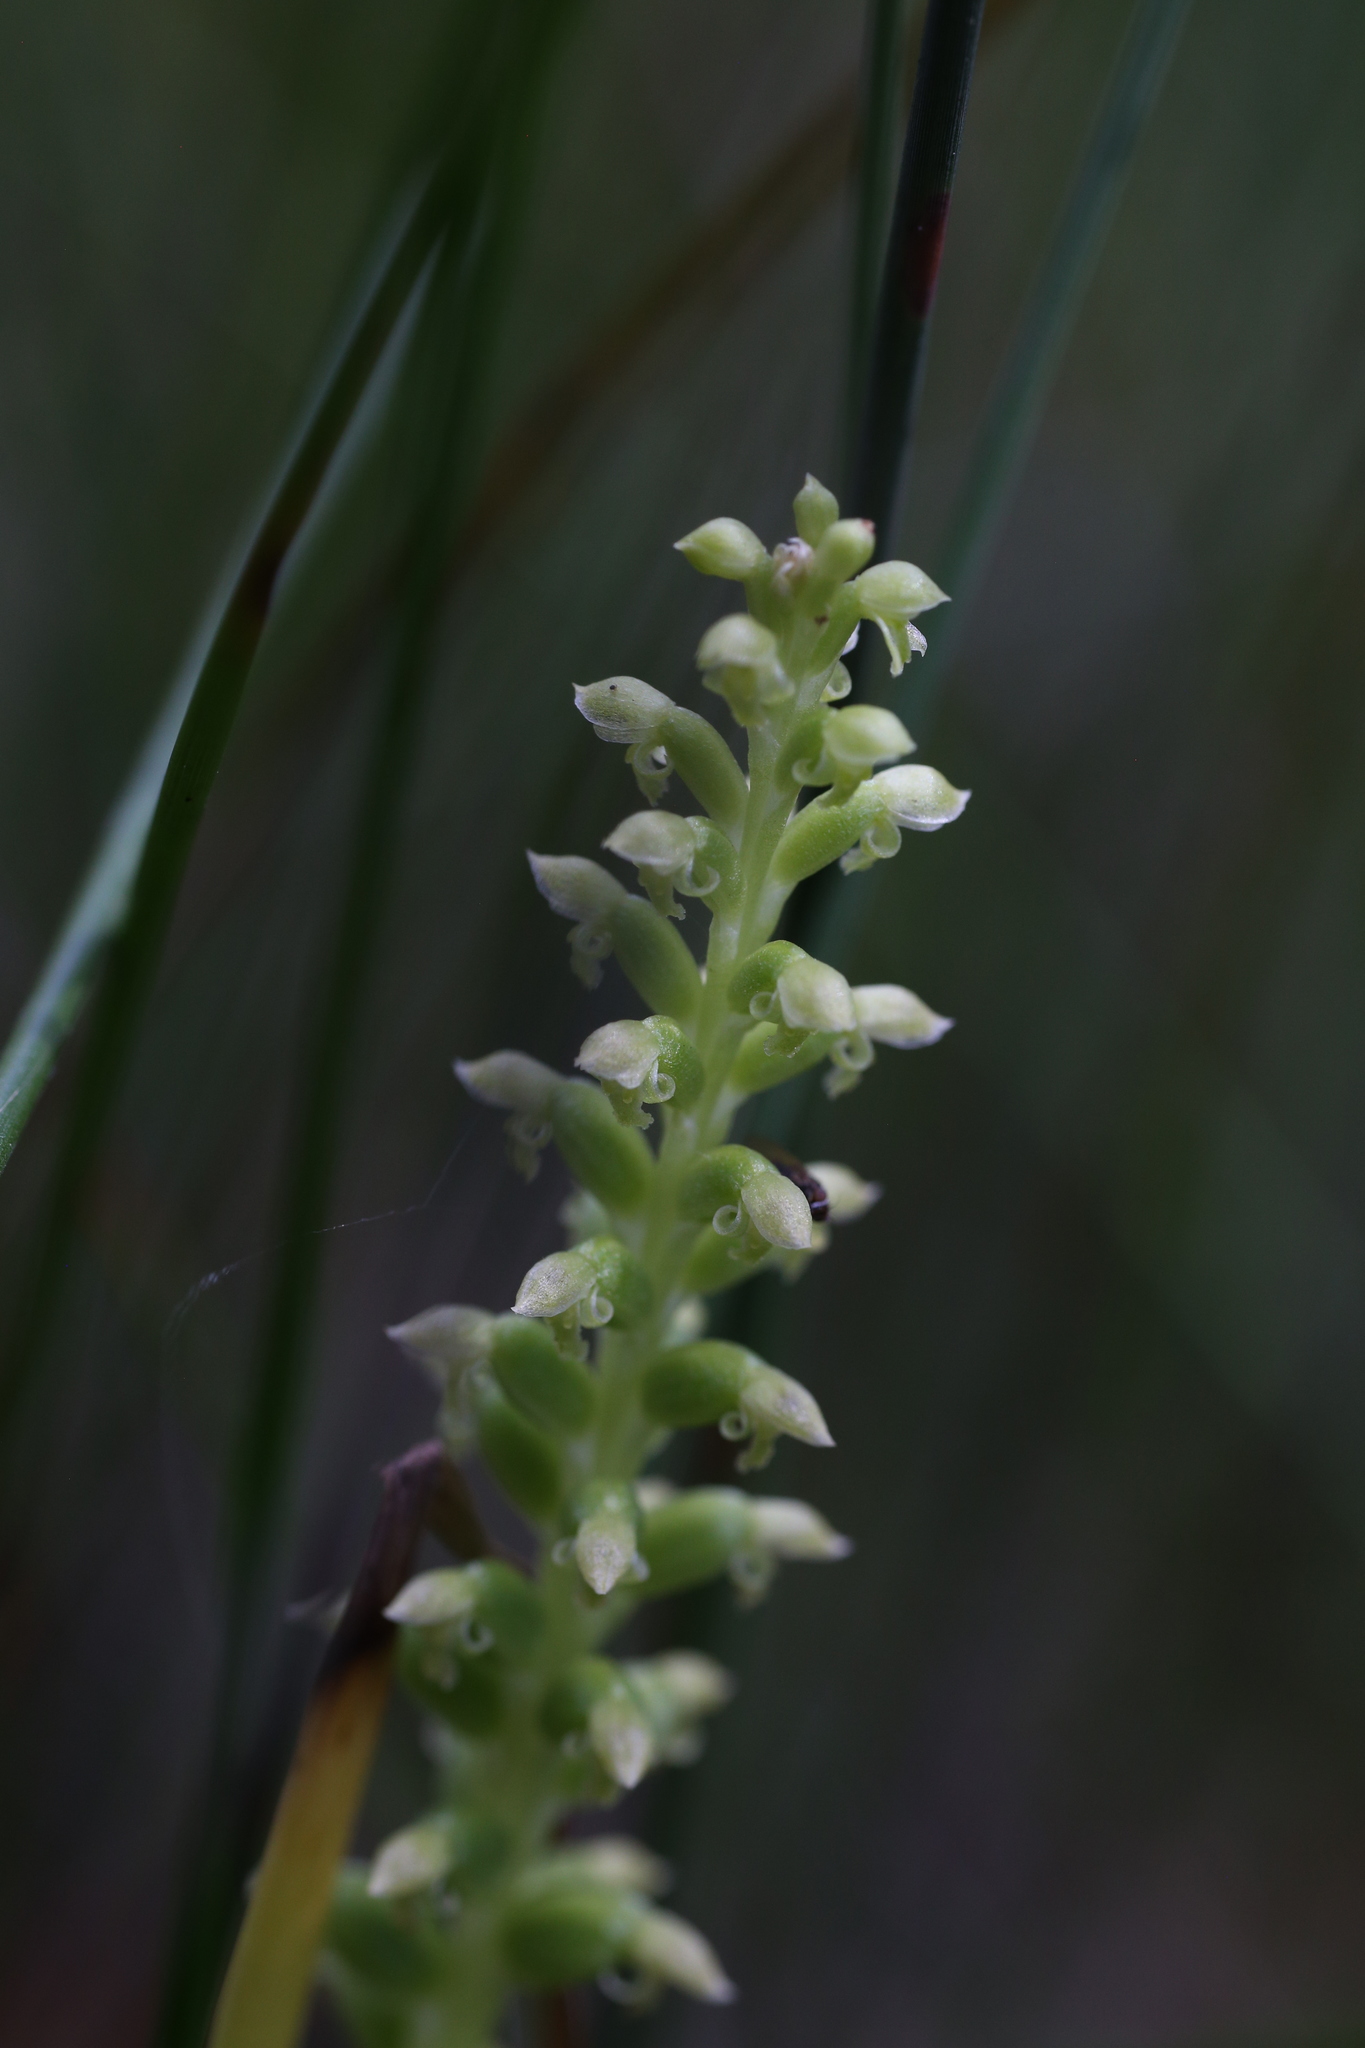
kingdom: Plantae
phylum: Tracheophyta
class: Liliopsida
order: Asparagales
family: Orchidaceae
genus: Microtis
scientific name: Microtis media
